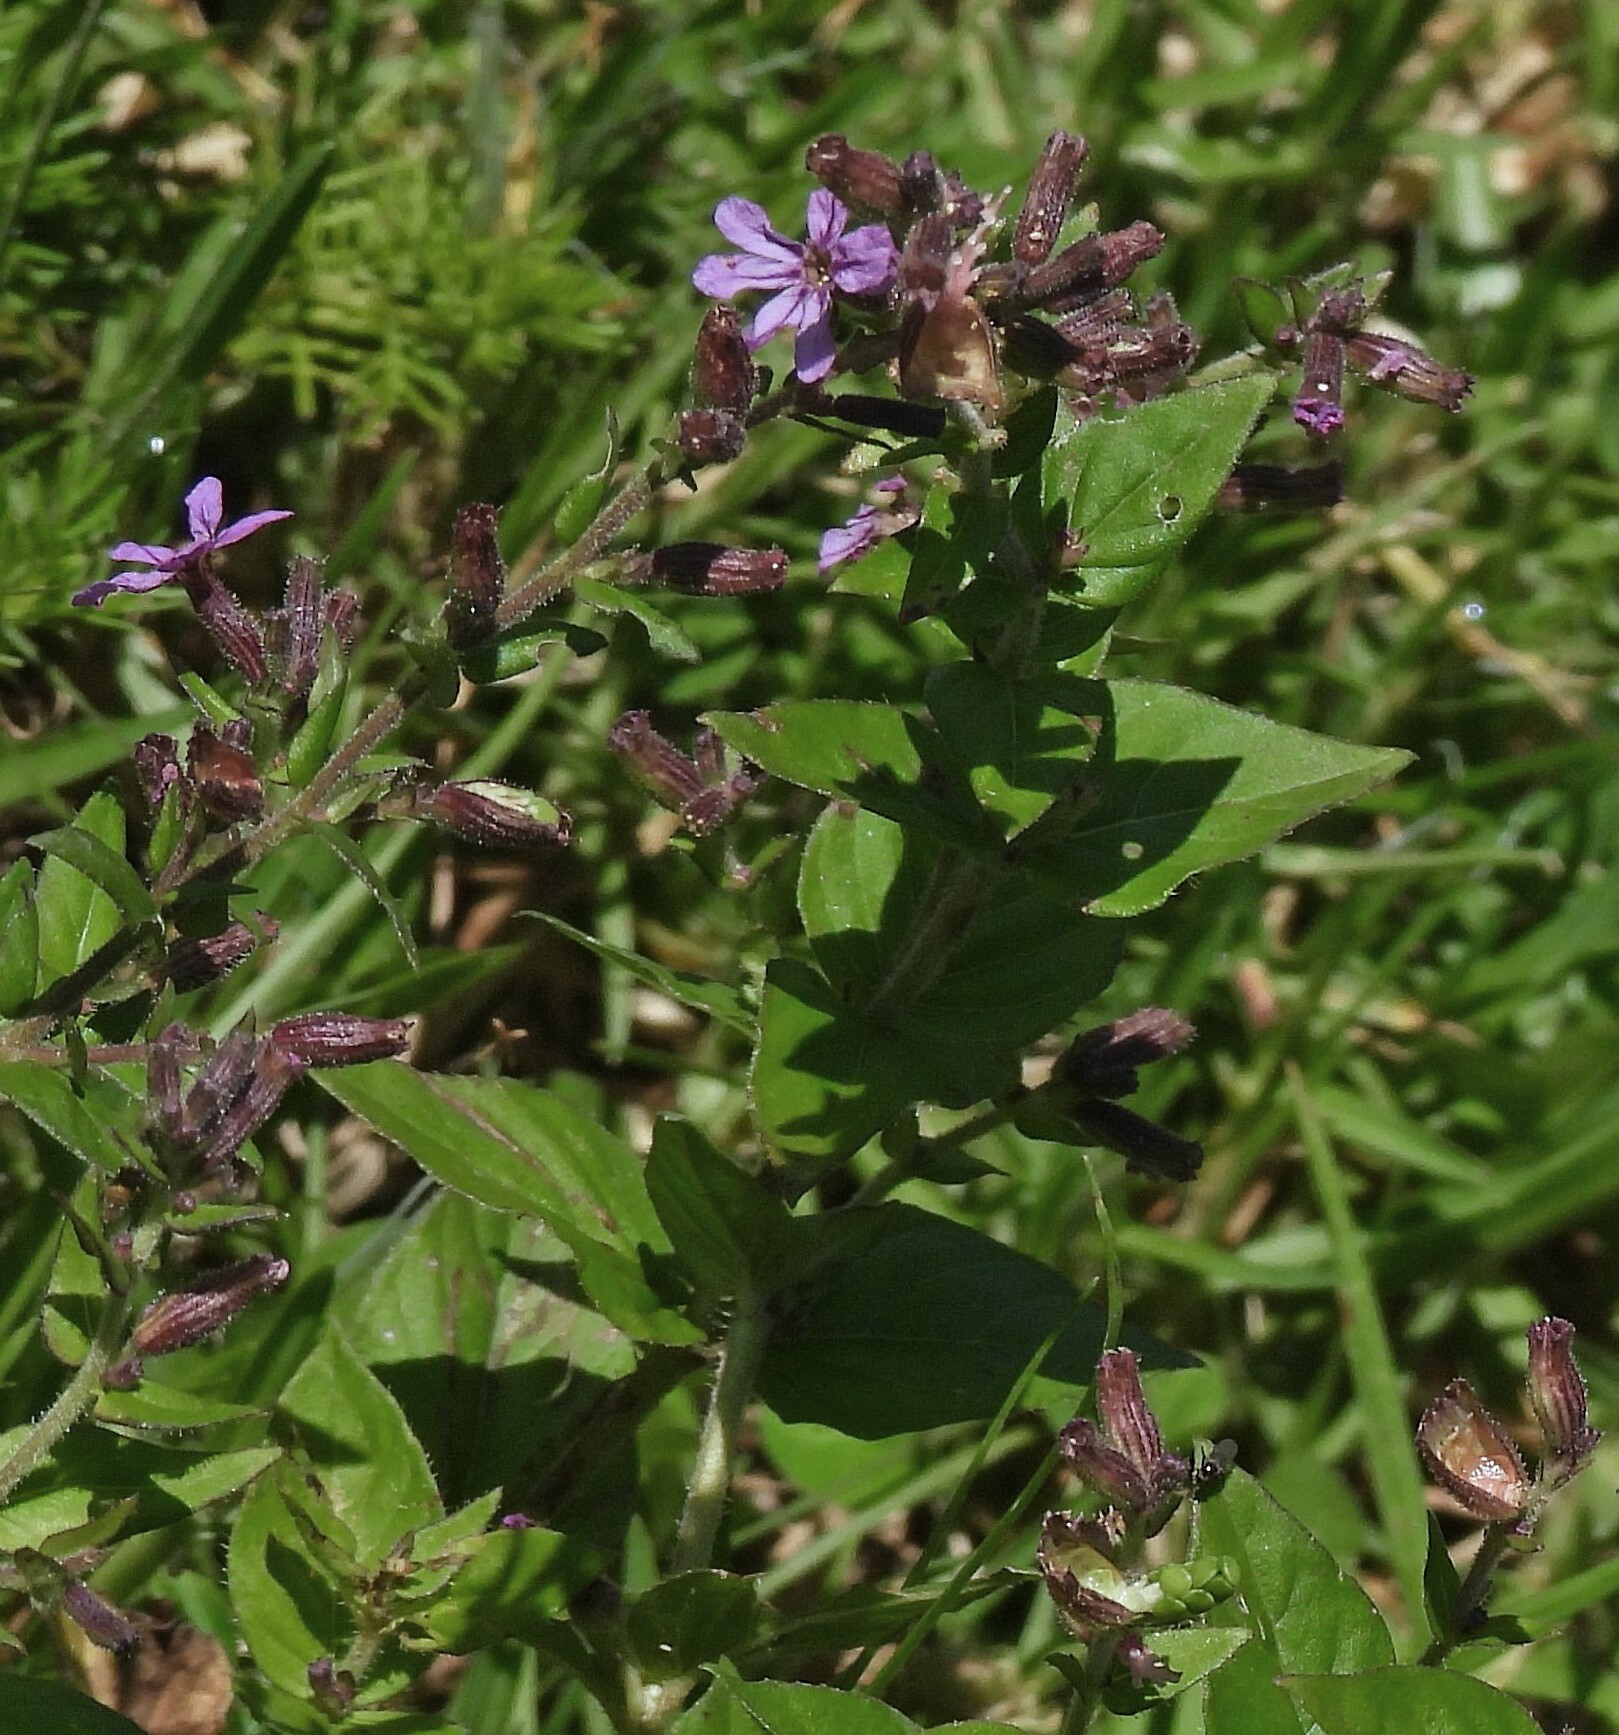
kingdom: Plantae
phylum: Tracheophyta
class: Magnoliopsida
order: Myrtales
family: Lythraceae
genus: Cuphea
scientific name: Cuphea racemosa
